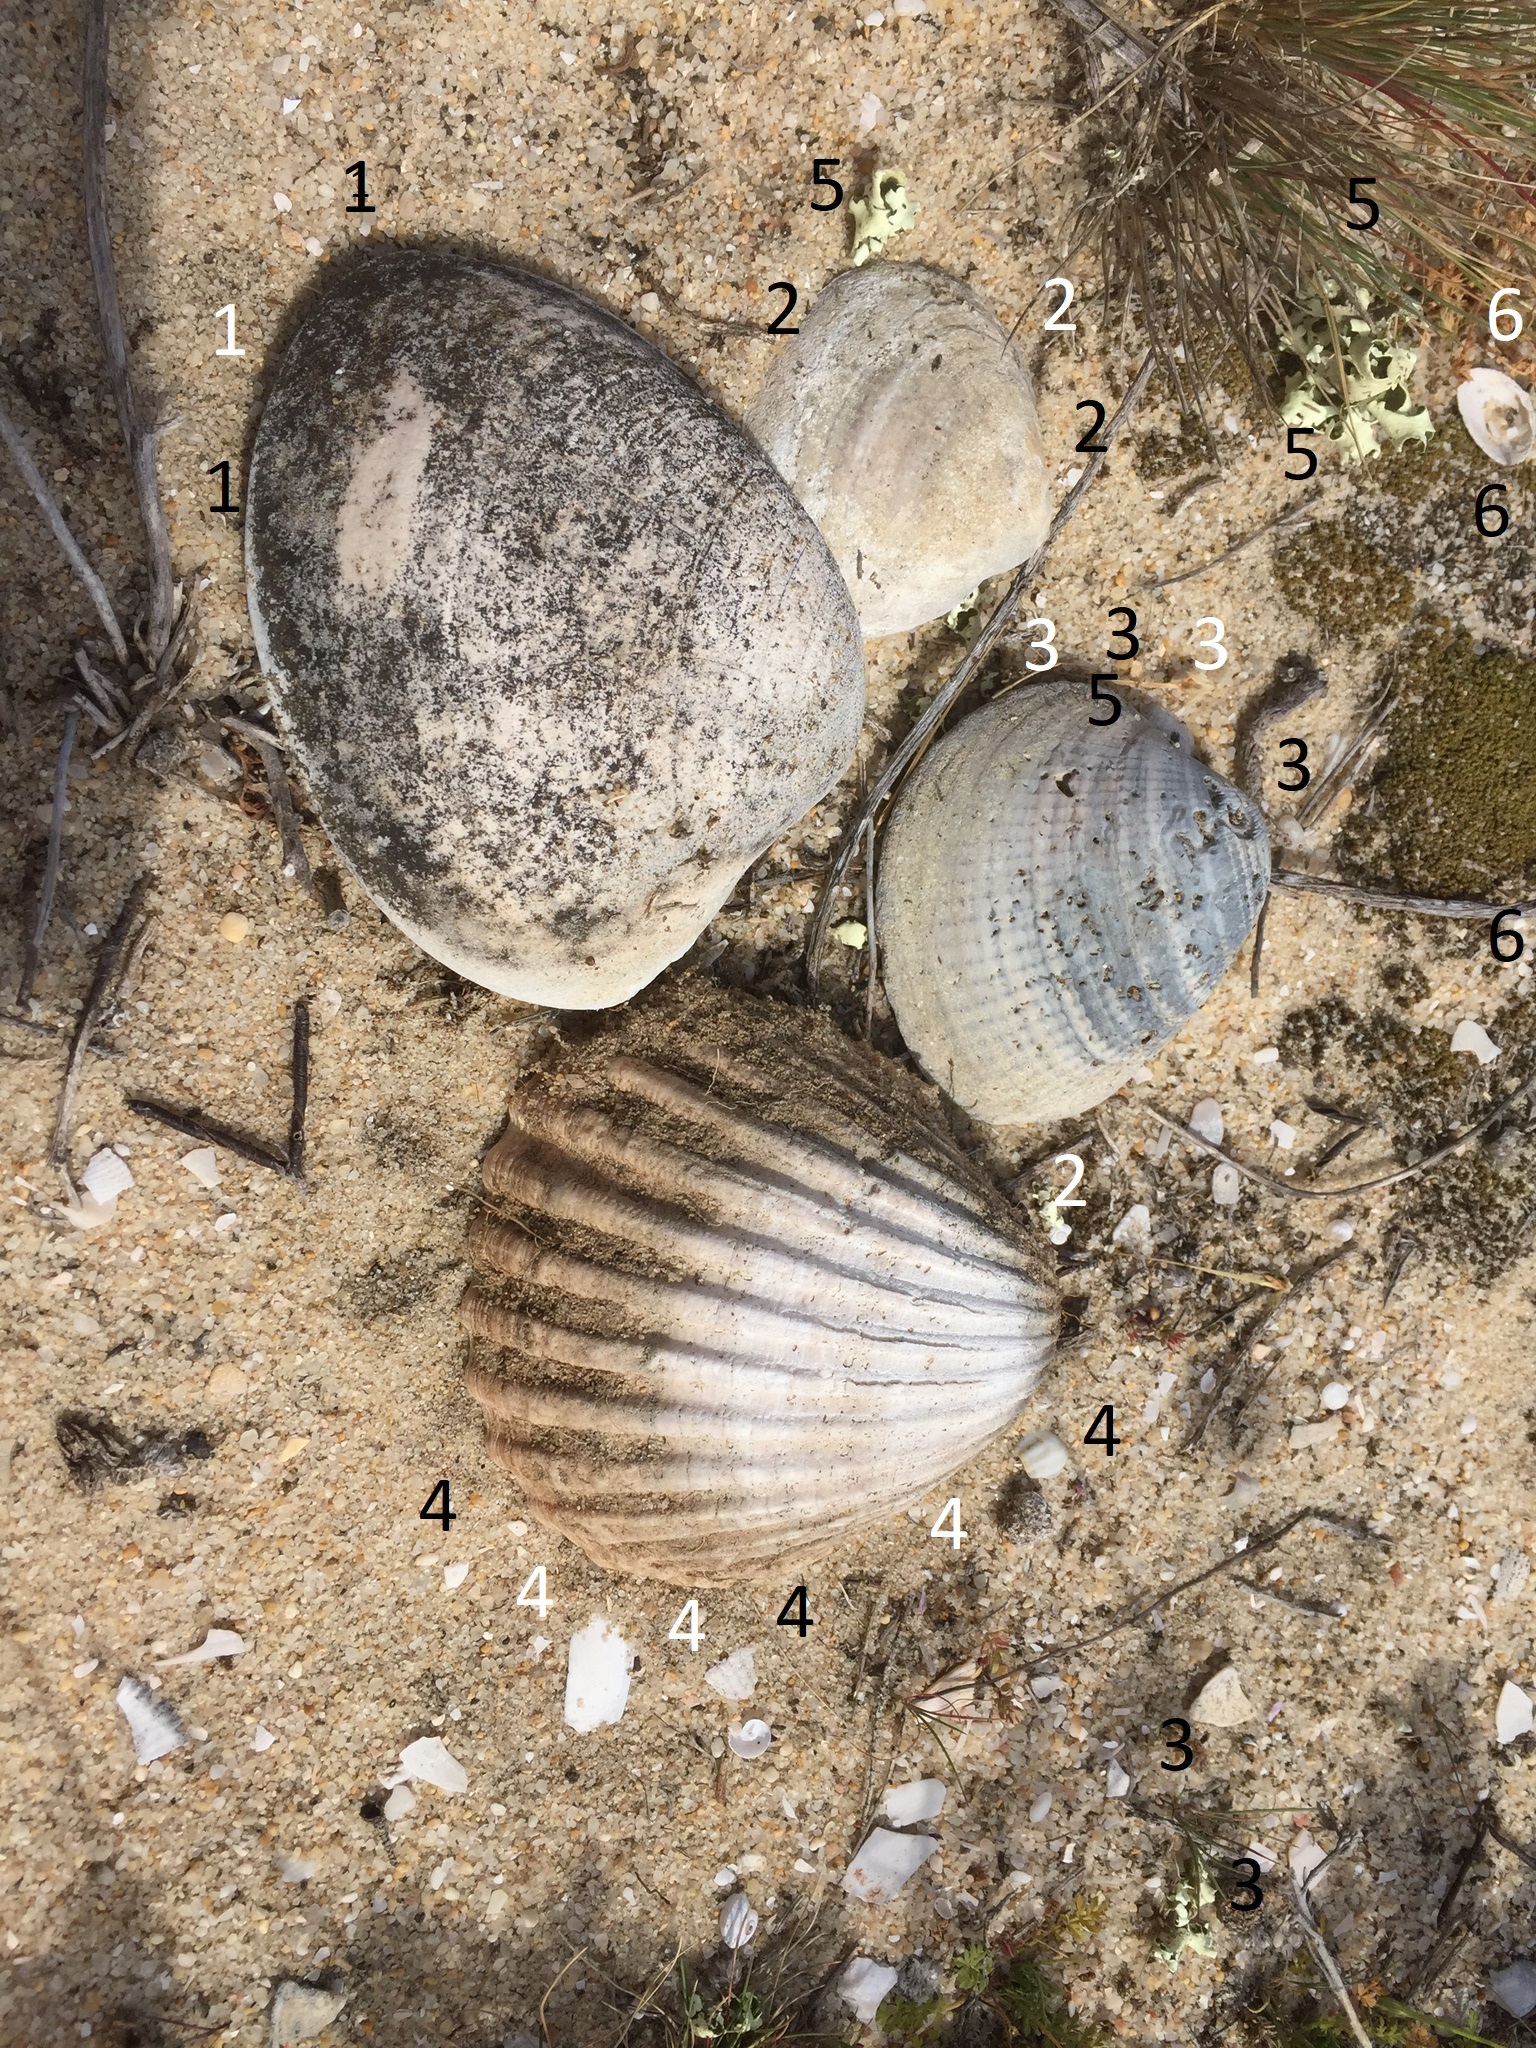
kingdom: Animalia
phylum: Mollusca
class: Bivalvia
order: Venerida
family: Veneridae
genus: Callista
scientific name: Callista chione
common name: Brown venus
